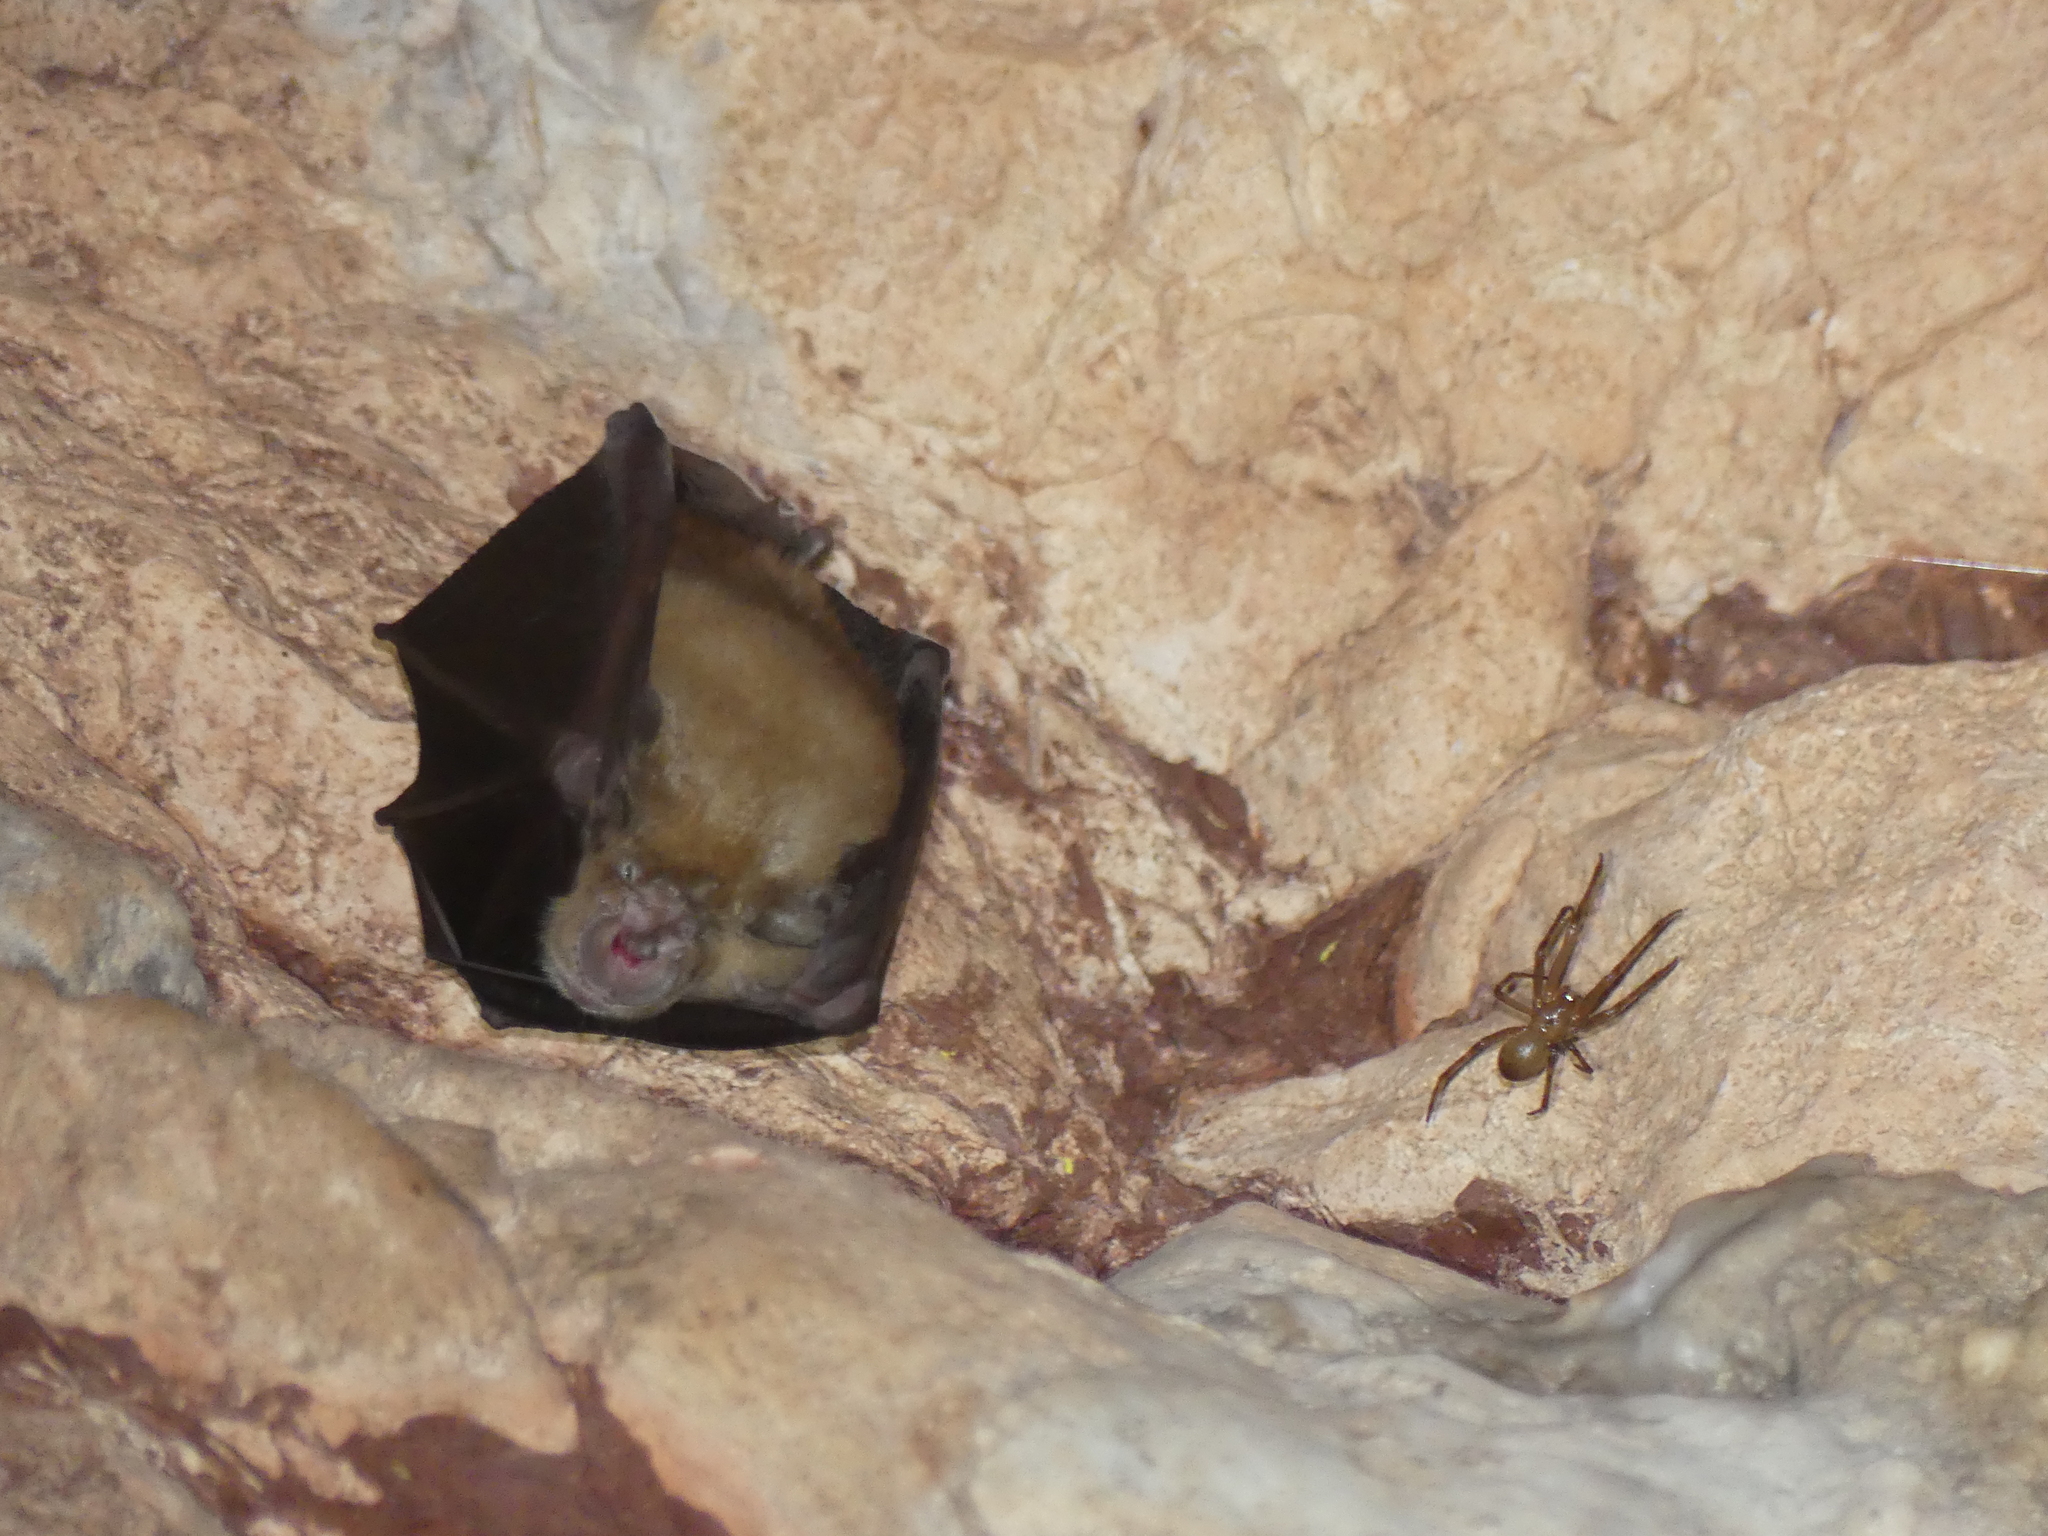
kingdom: Animalia
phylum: Chordata
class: Mammalia
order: Chiroptera
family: Rhinolophidae
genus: Rhinolophus
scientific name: Rhinolophus ferrumequinum
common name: Greater horseshoe bat
